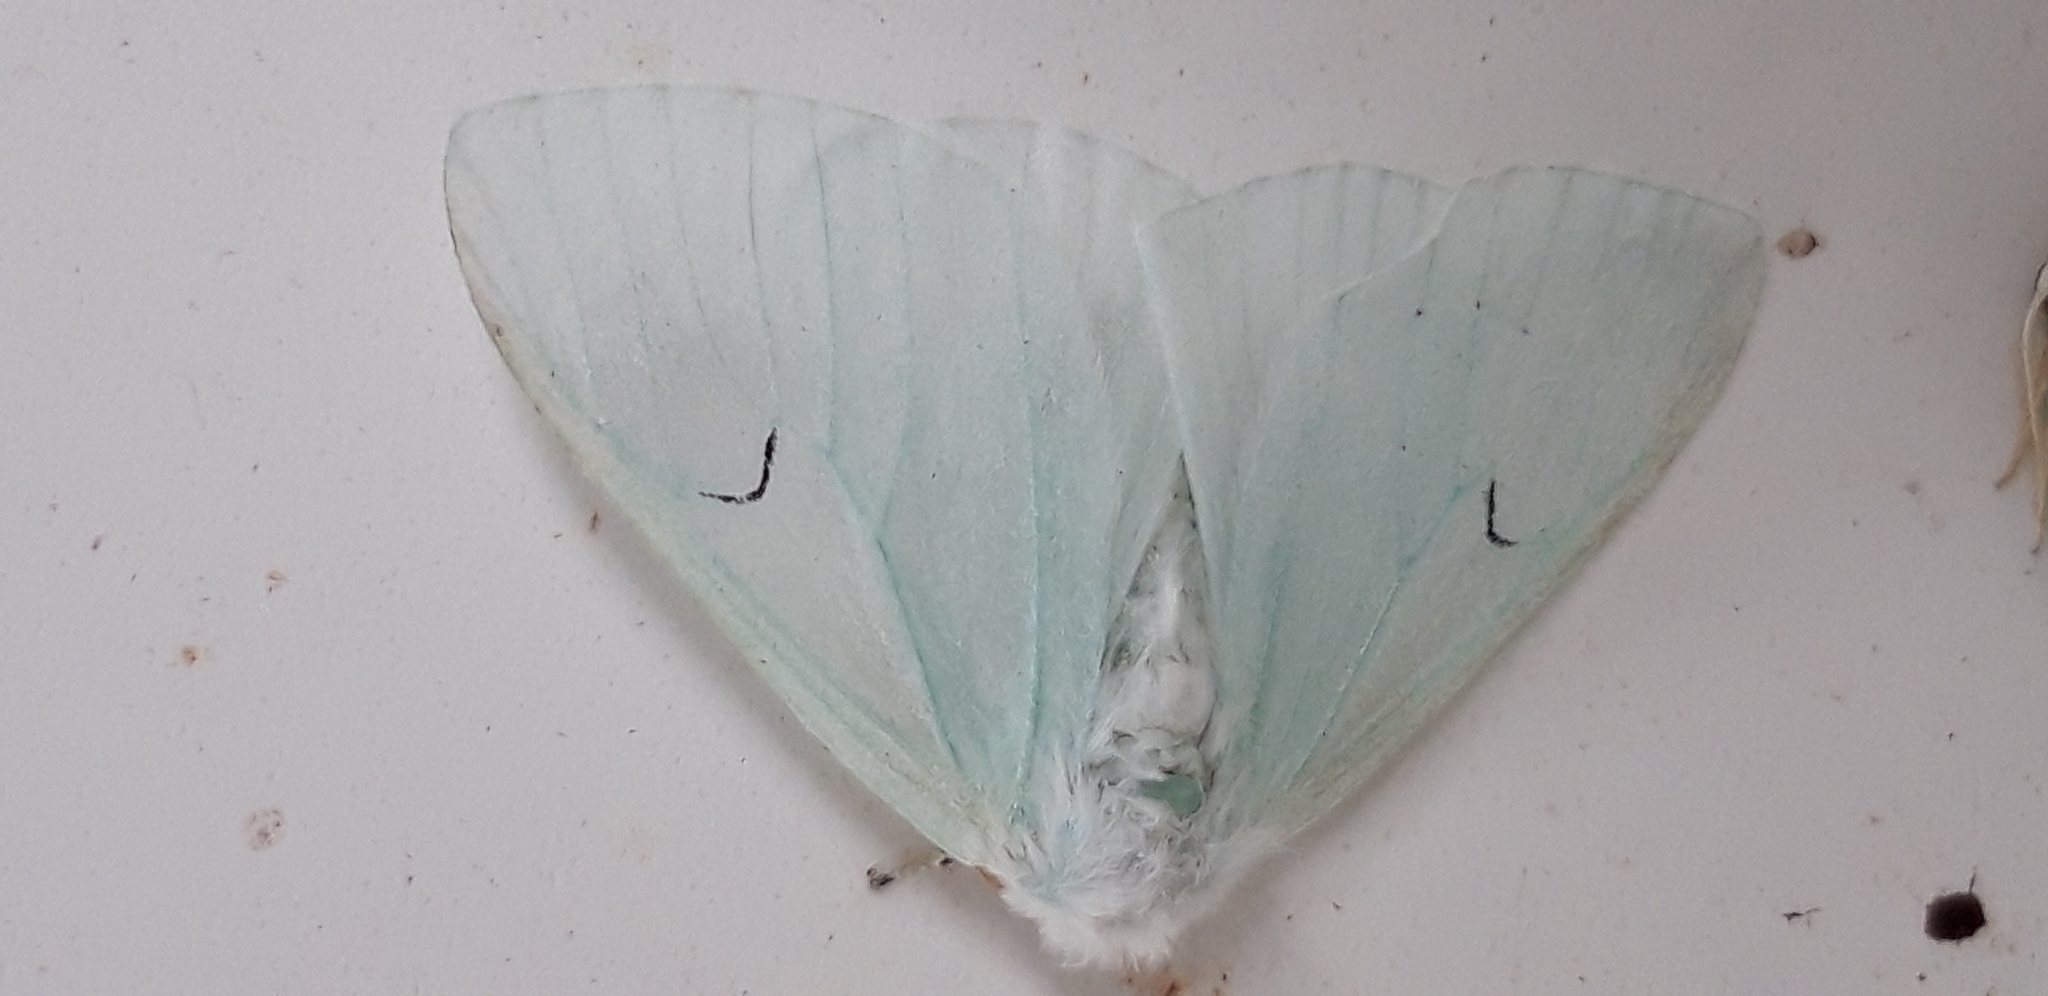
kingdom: Animalia
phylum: Arthropoda
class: Insecta
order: Lepidoptera
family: Erebidae
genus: Arctornis
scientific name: Arctornis l-nigrum
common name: Black v moth
